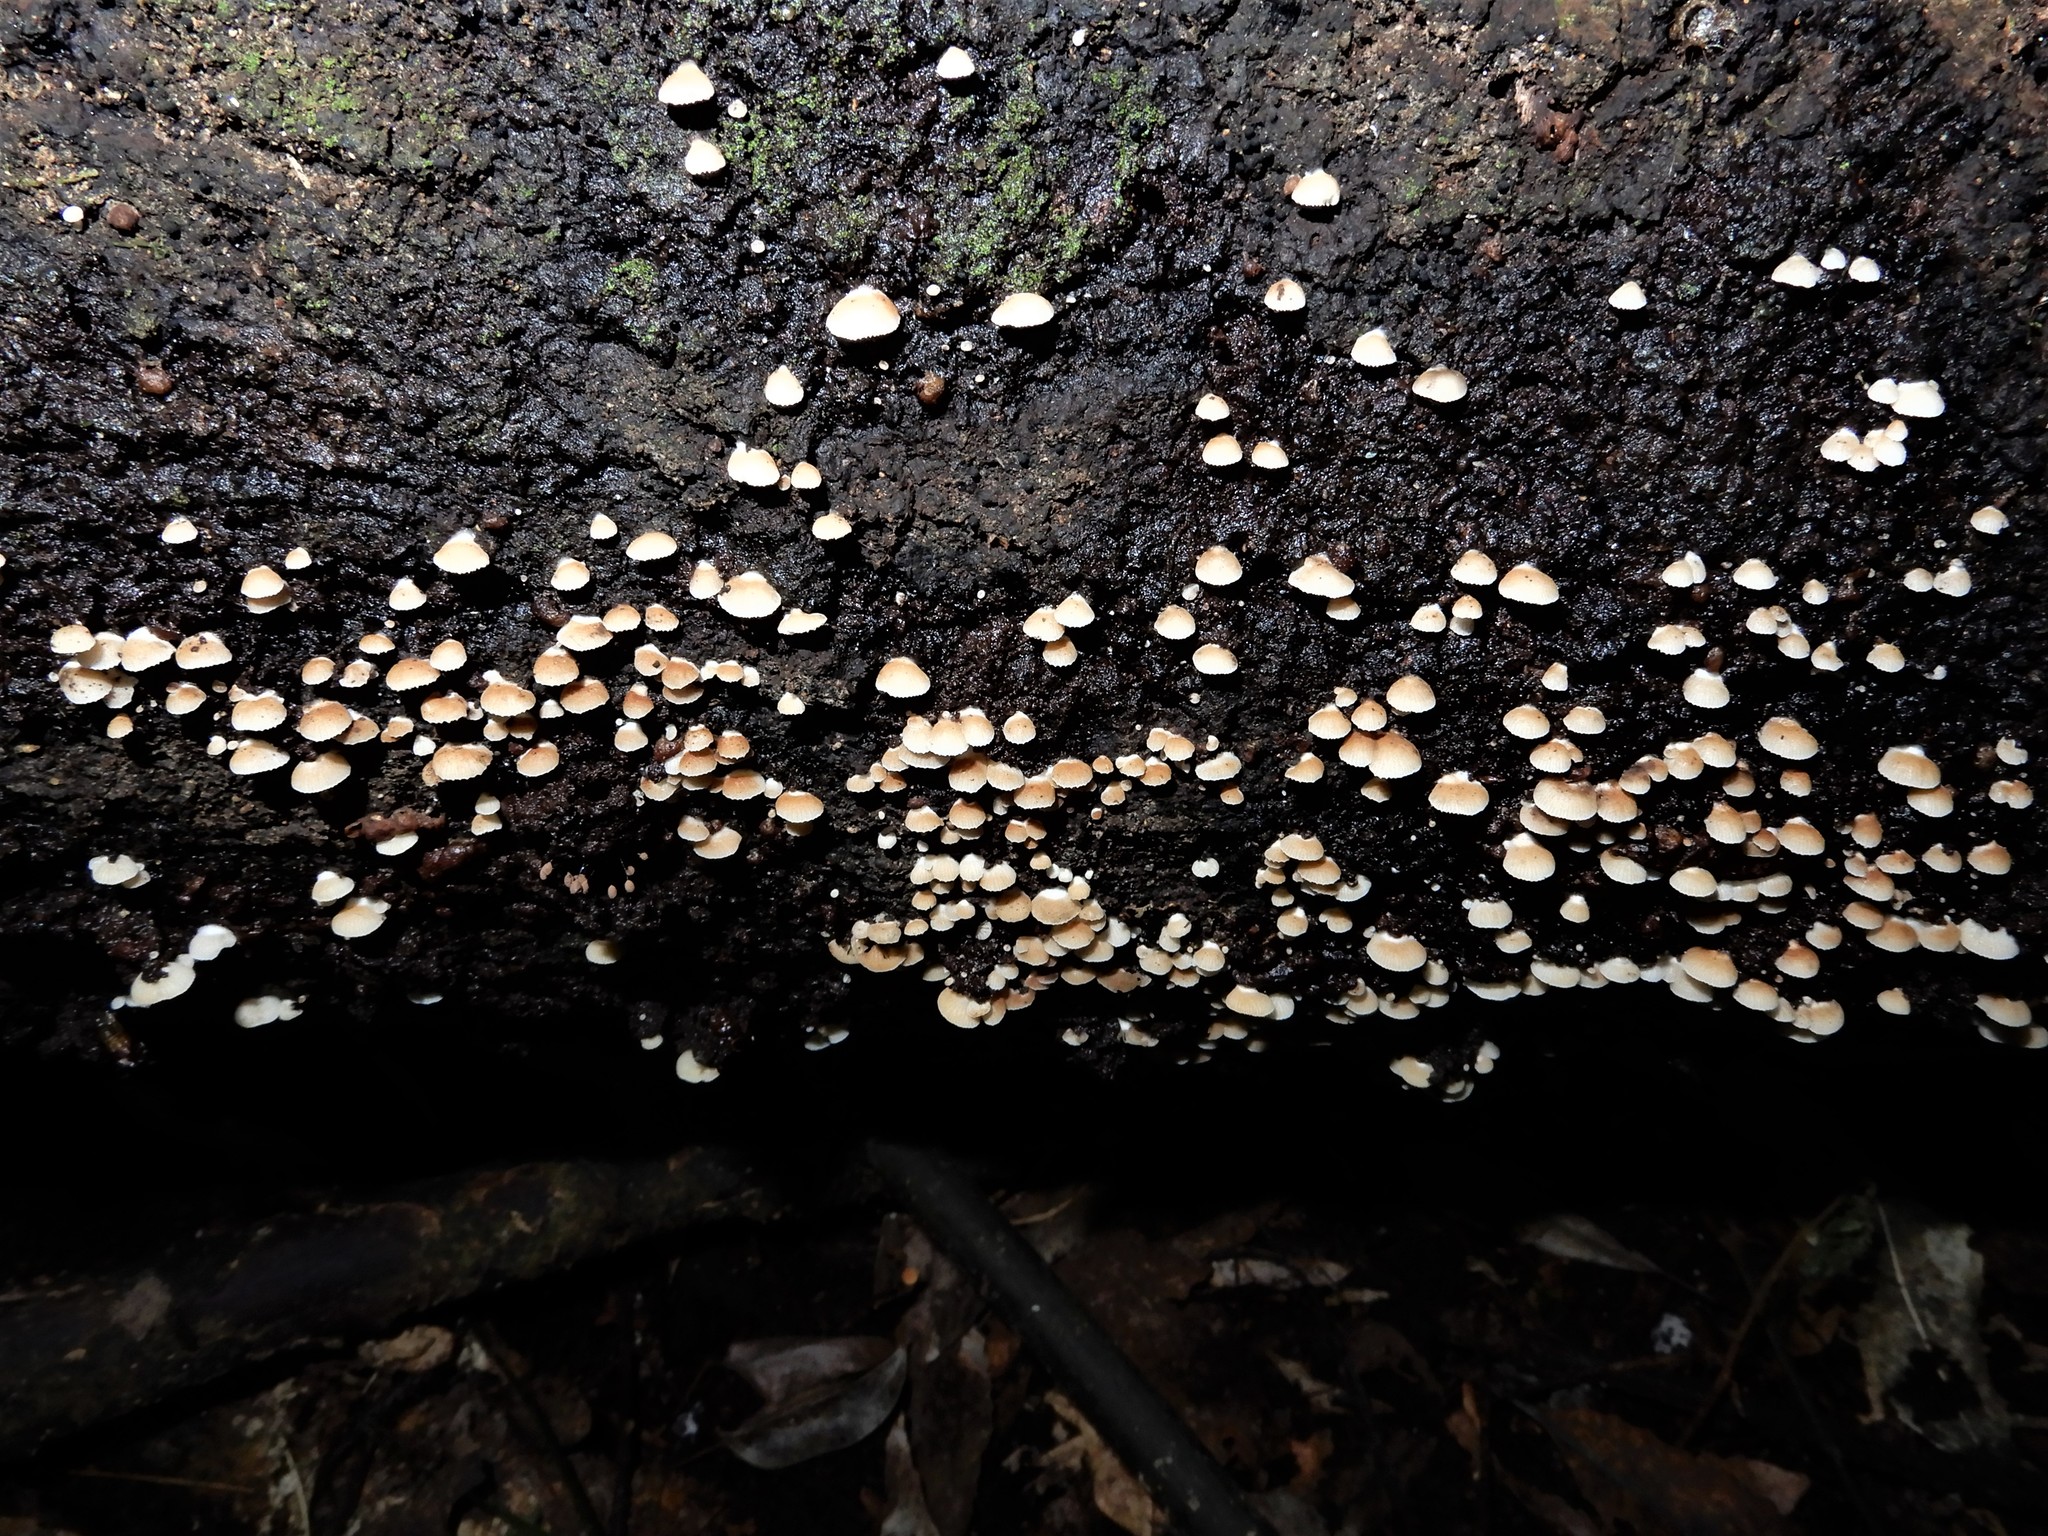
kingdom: Fungi
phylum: Basidiomycota
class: Agaricomycetes
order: Agaricales
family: Crepidotaceae
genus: Crepidotus
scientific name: Crepidotus nanicus
